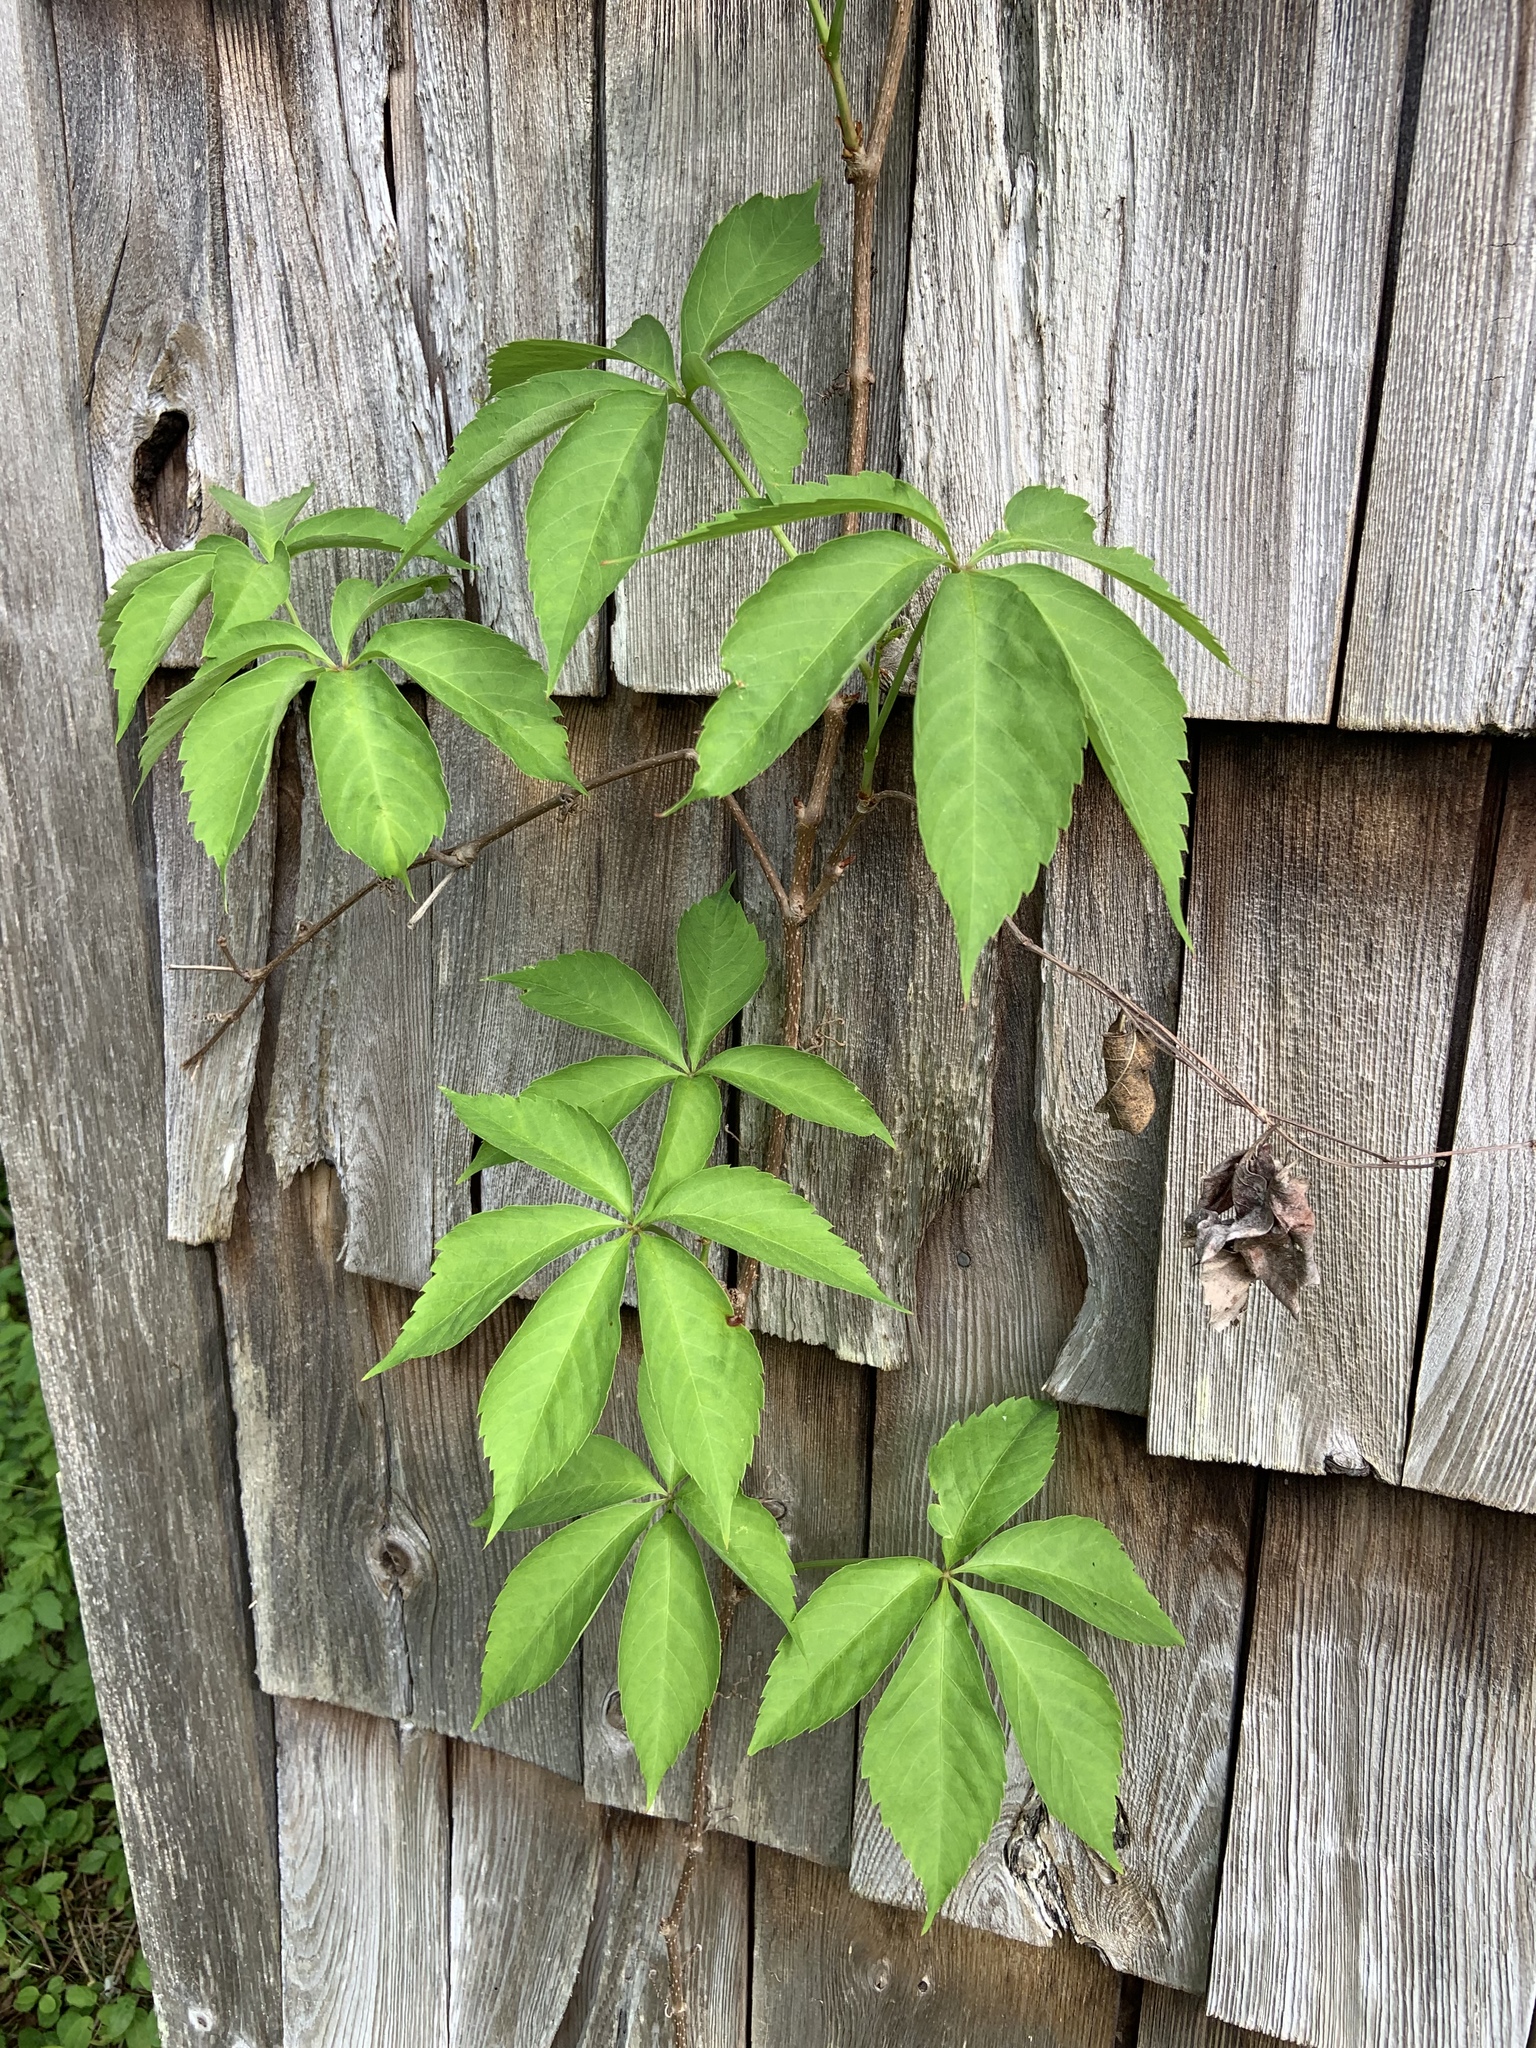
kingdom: Plantae
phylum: Tracheophyta
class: Magnoliopsida
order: Vitales
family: Vitaceae
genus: Parthenocissus
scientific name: Parthenocissus quinquefolia
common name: Virginia-creeper
